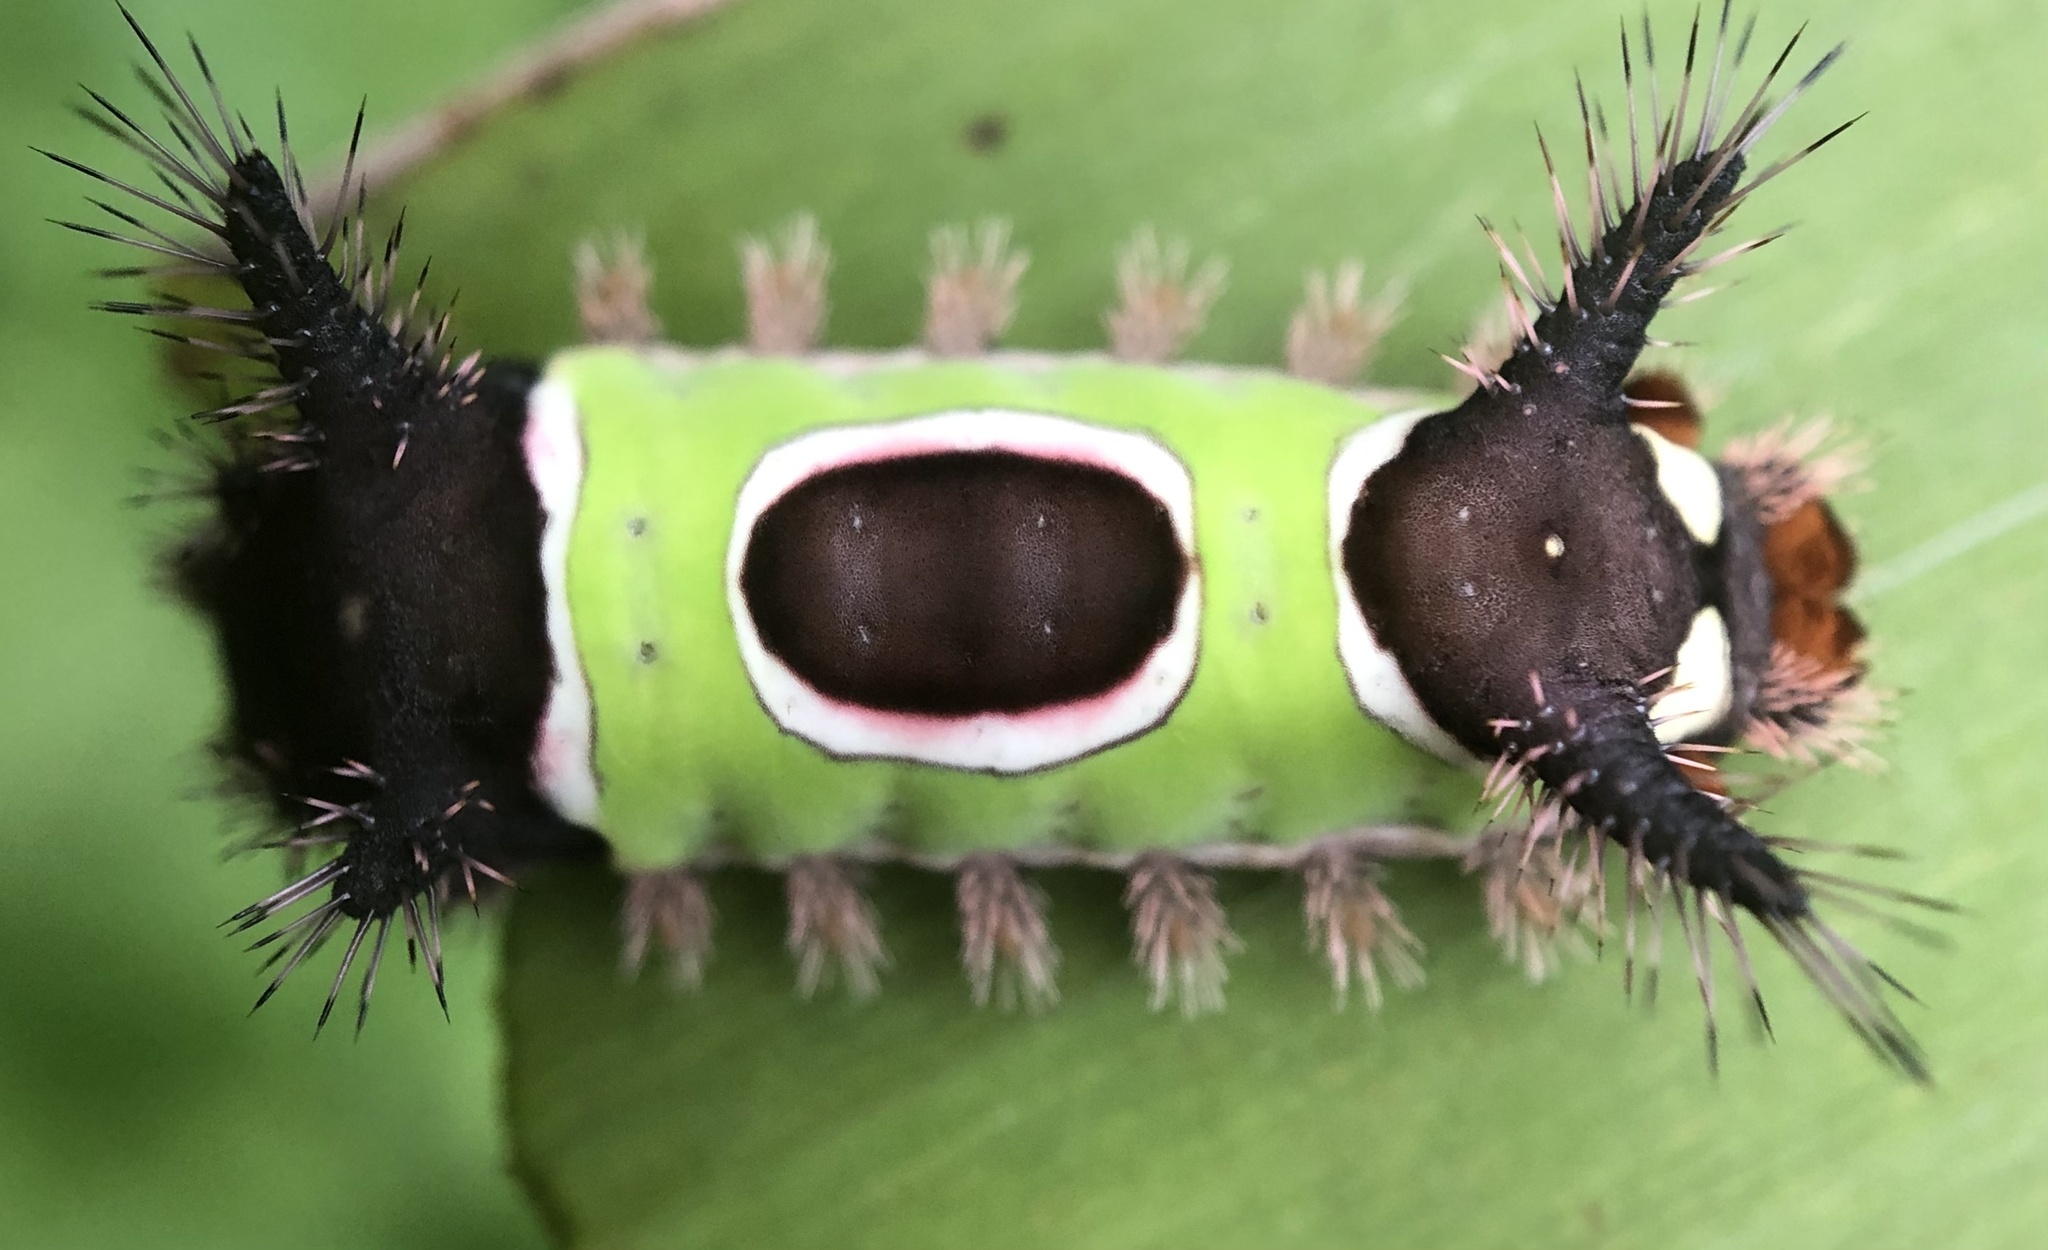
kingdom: Animalia
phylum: Arthropoda
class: Insecta
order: Lepidoptera
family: Limacodidae
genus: Acharia
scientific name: Acharia stimulea
